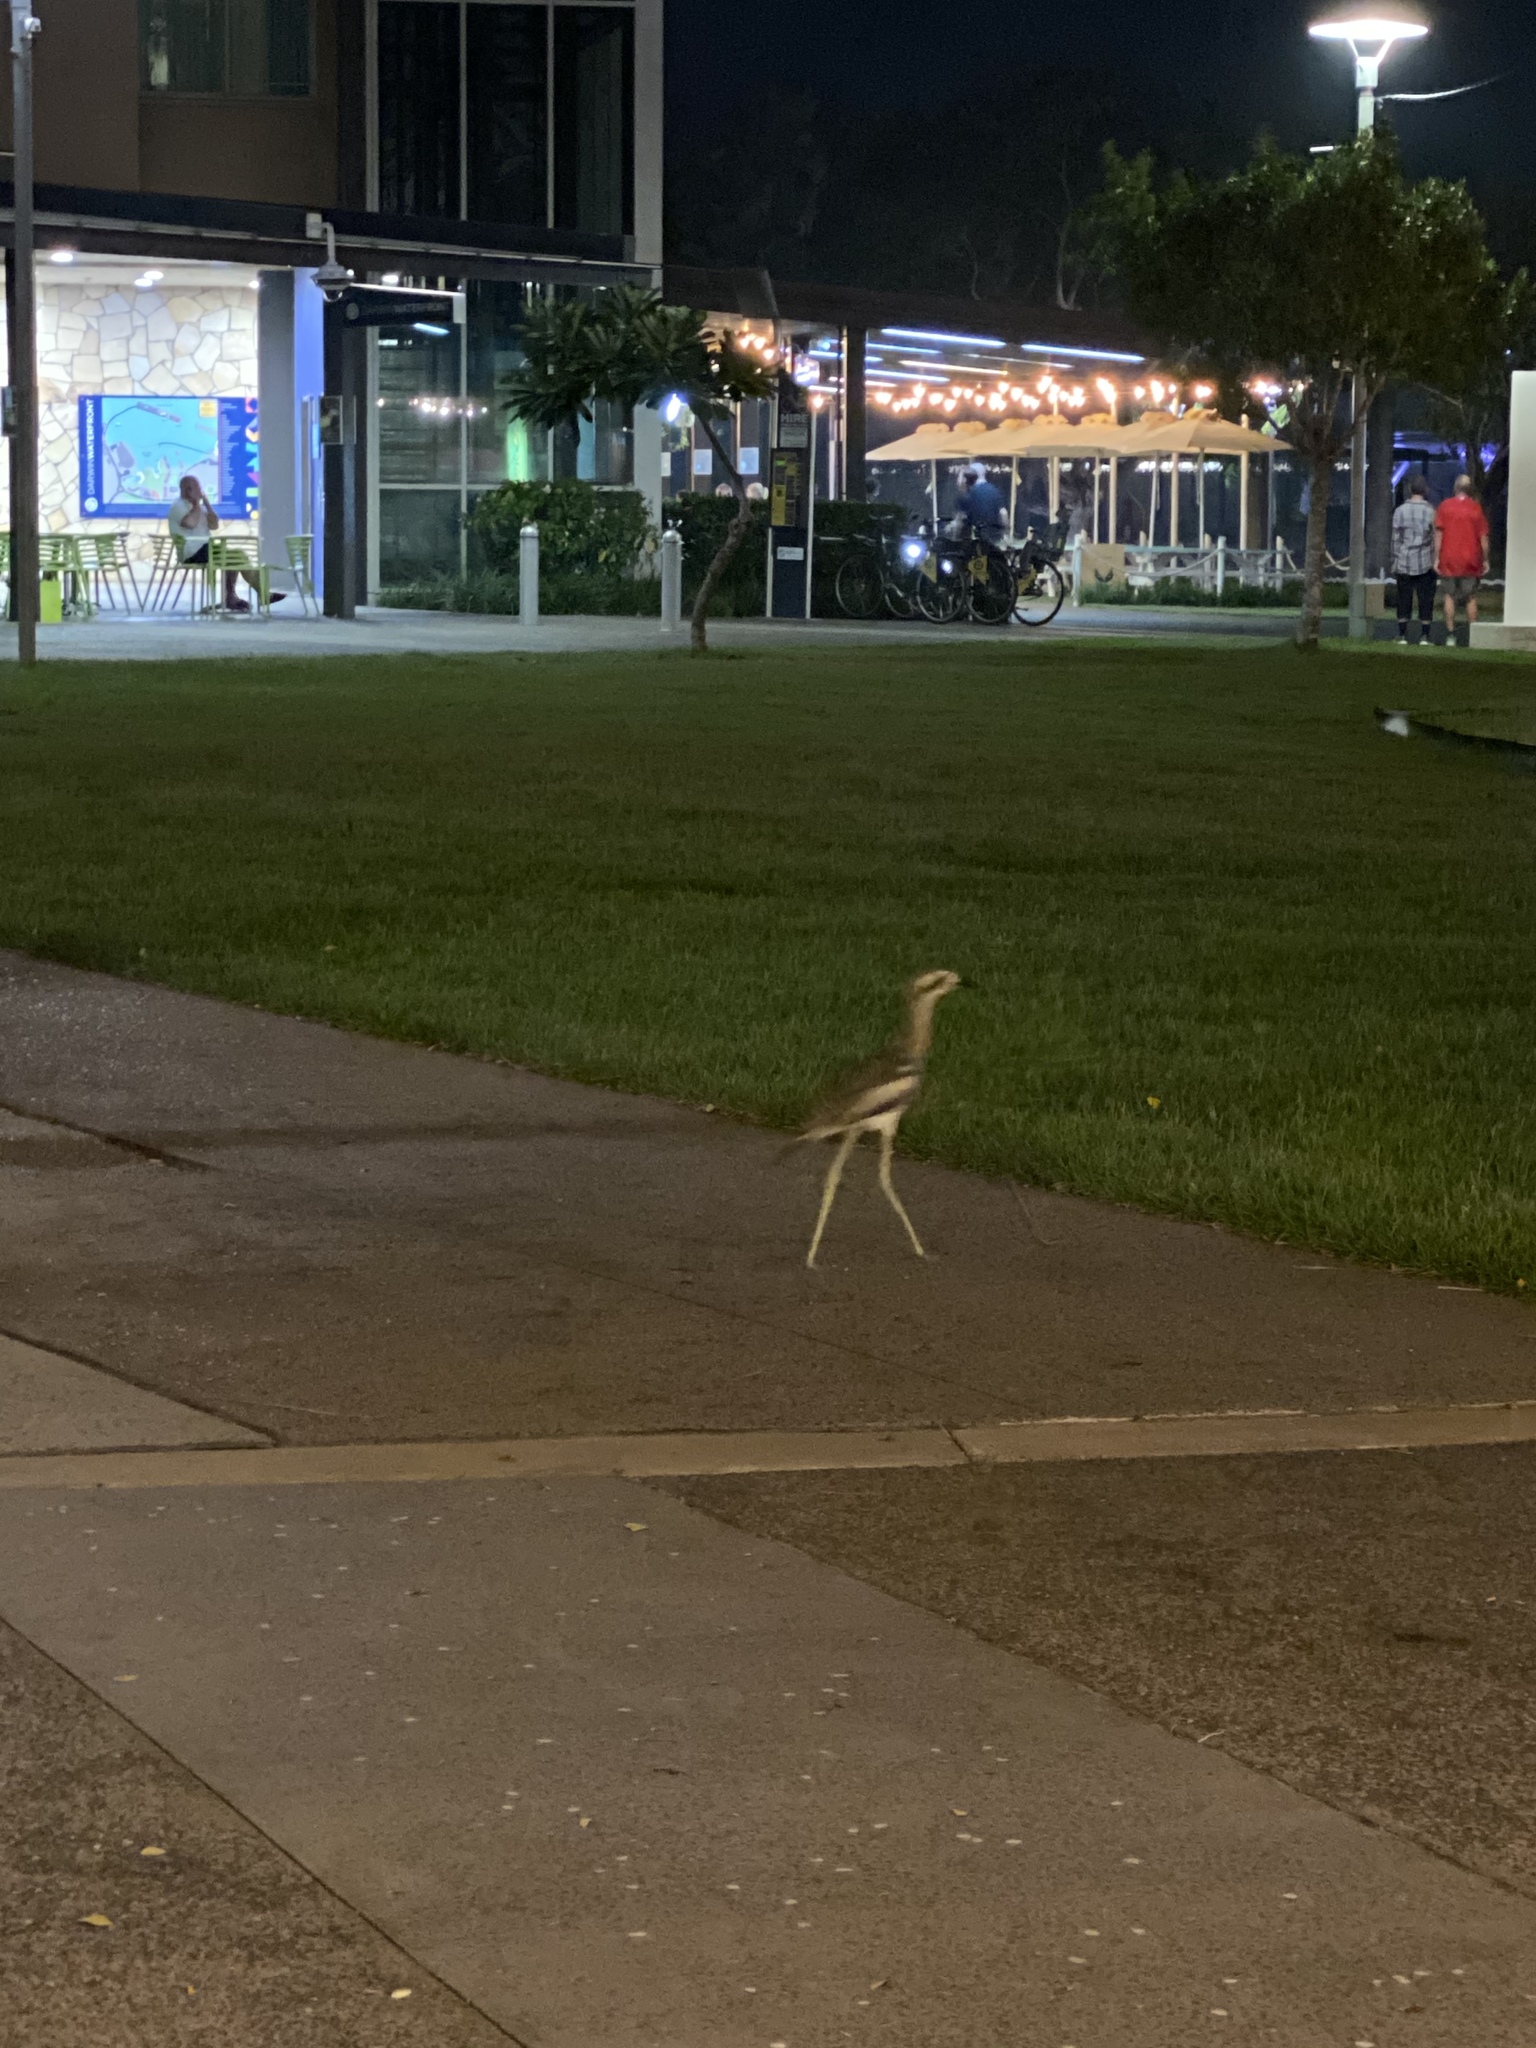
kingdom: Animalia
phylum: Chordata
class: Aves
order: Charadriiformes
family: Burhinidae
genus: Burhinus
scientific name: Burhinus grallarius
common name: Bush stone-curlew
